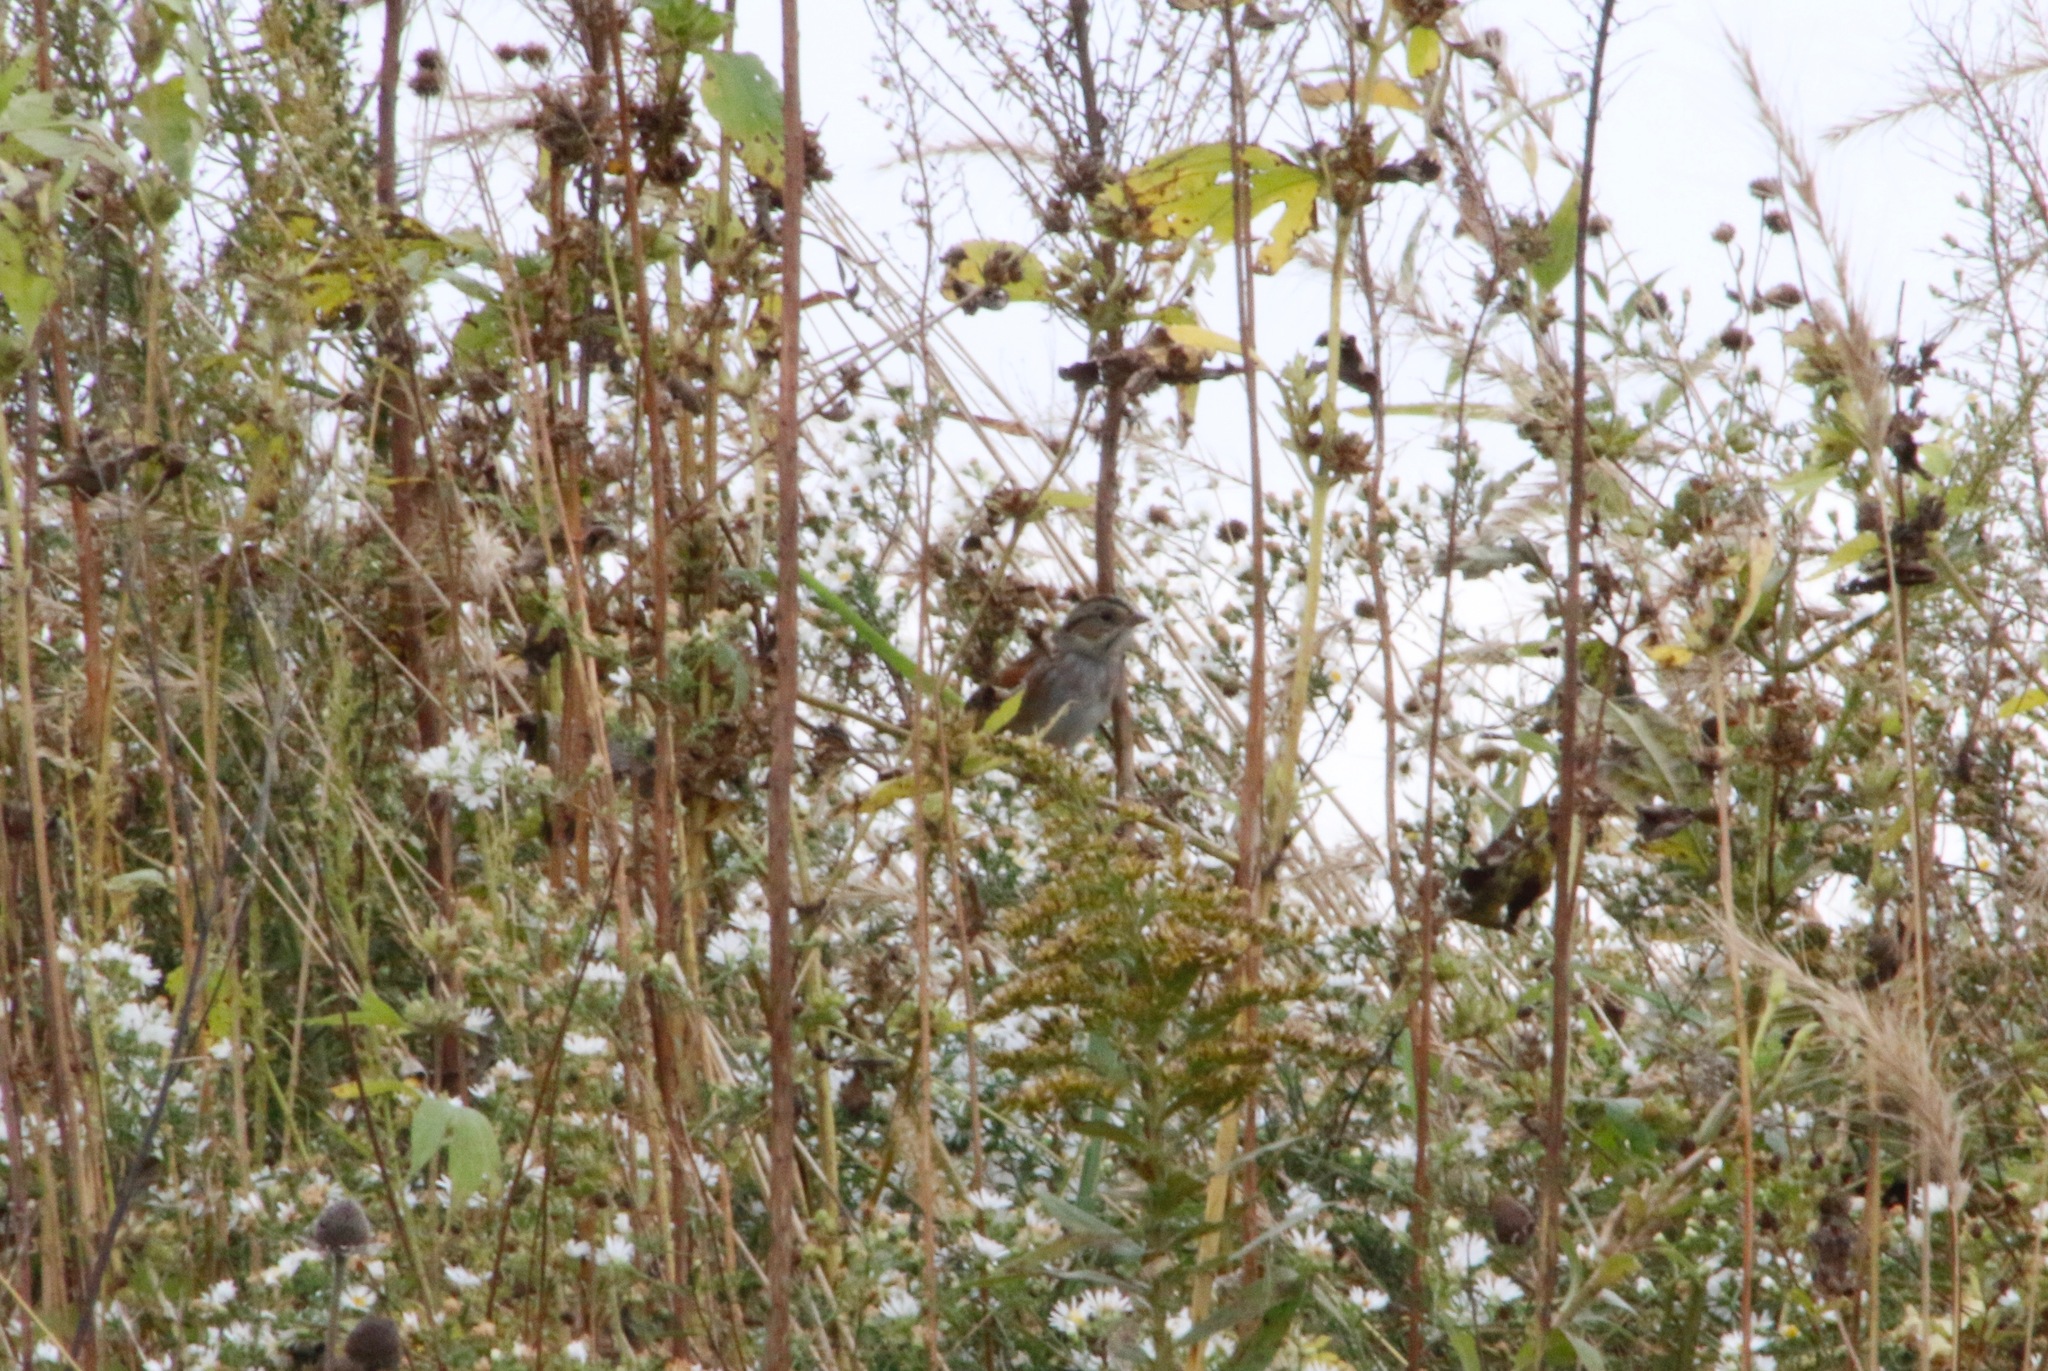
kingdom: Animalia
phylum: Chordata
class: Aves
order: Passeriformes
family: Passerellidae
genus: Melospiza
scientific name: Melospiza georgiana
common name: Swamp sparrow
